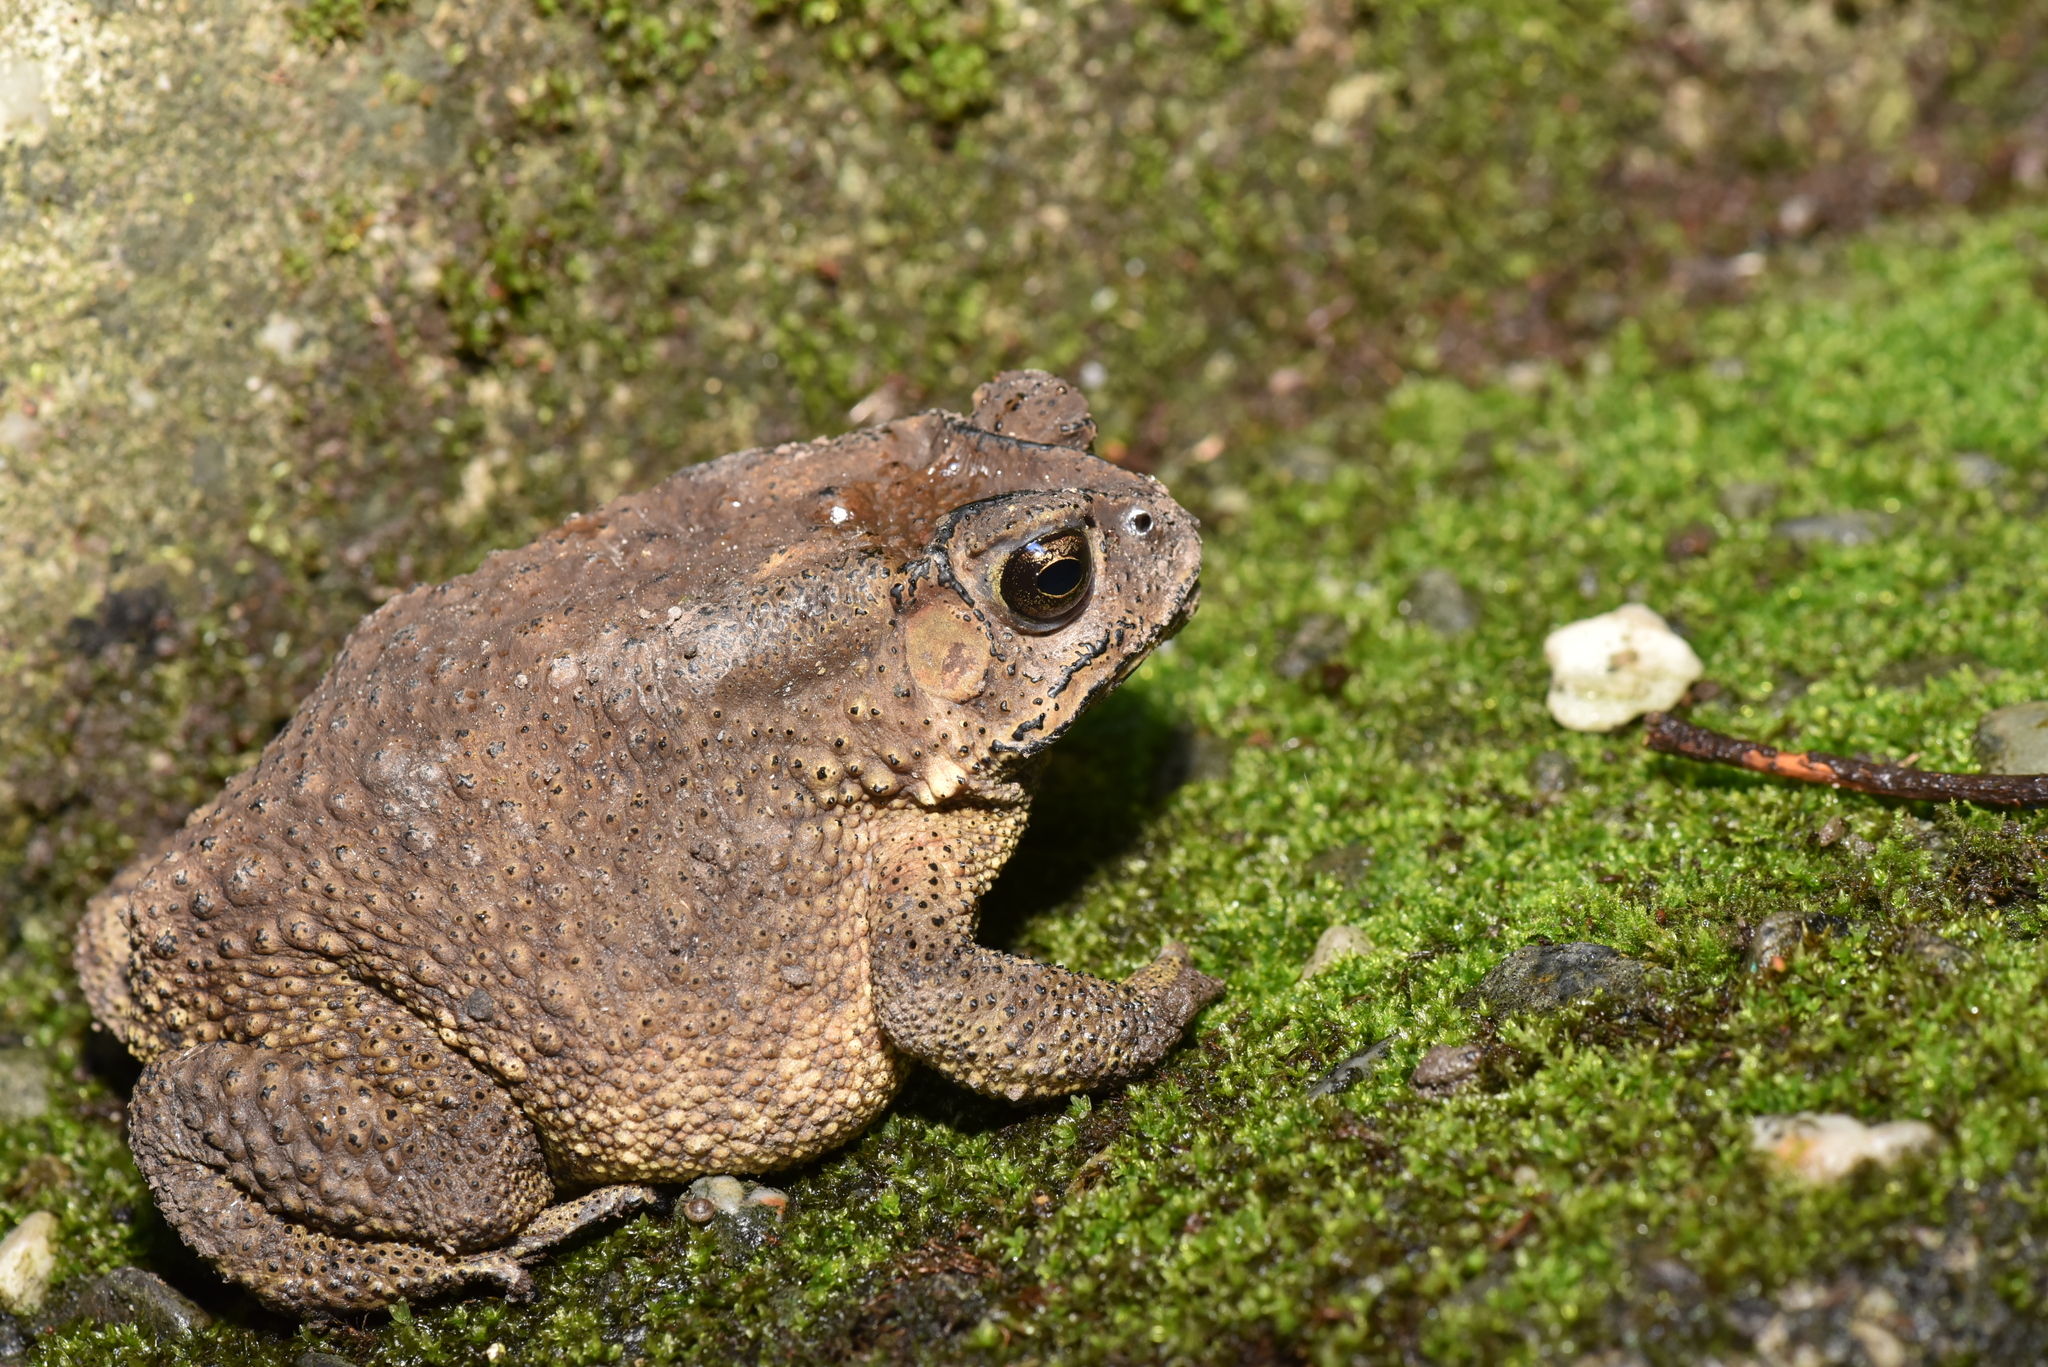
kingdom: Animalia
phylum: Chordata
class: Amphibia
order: Anura
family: Bufonidae
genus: Duttaphrynus
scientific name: Duttaphrynus melanostictus
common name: Common sunda toad
